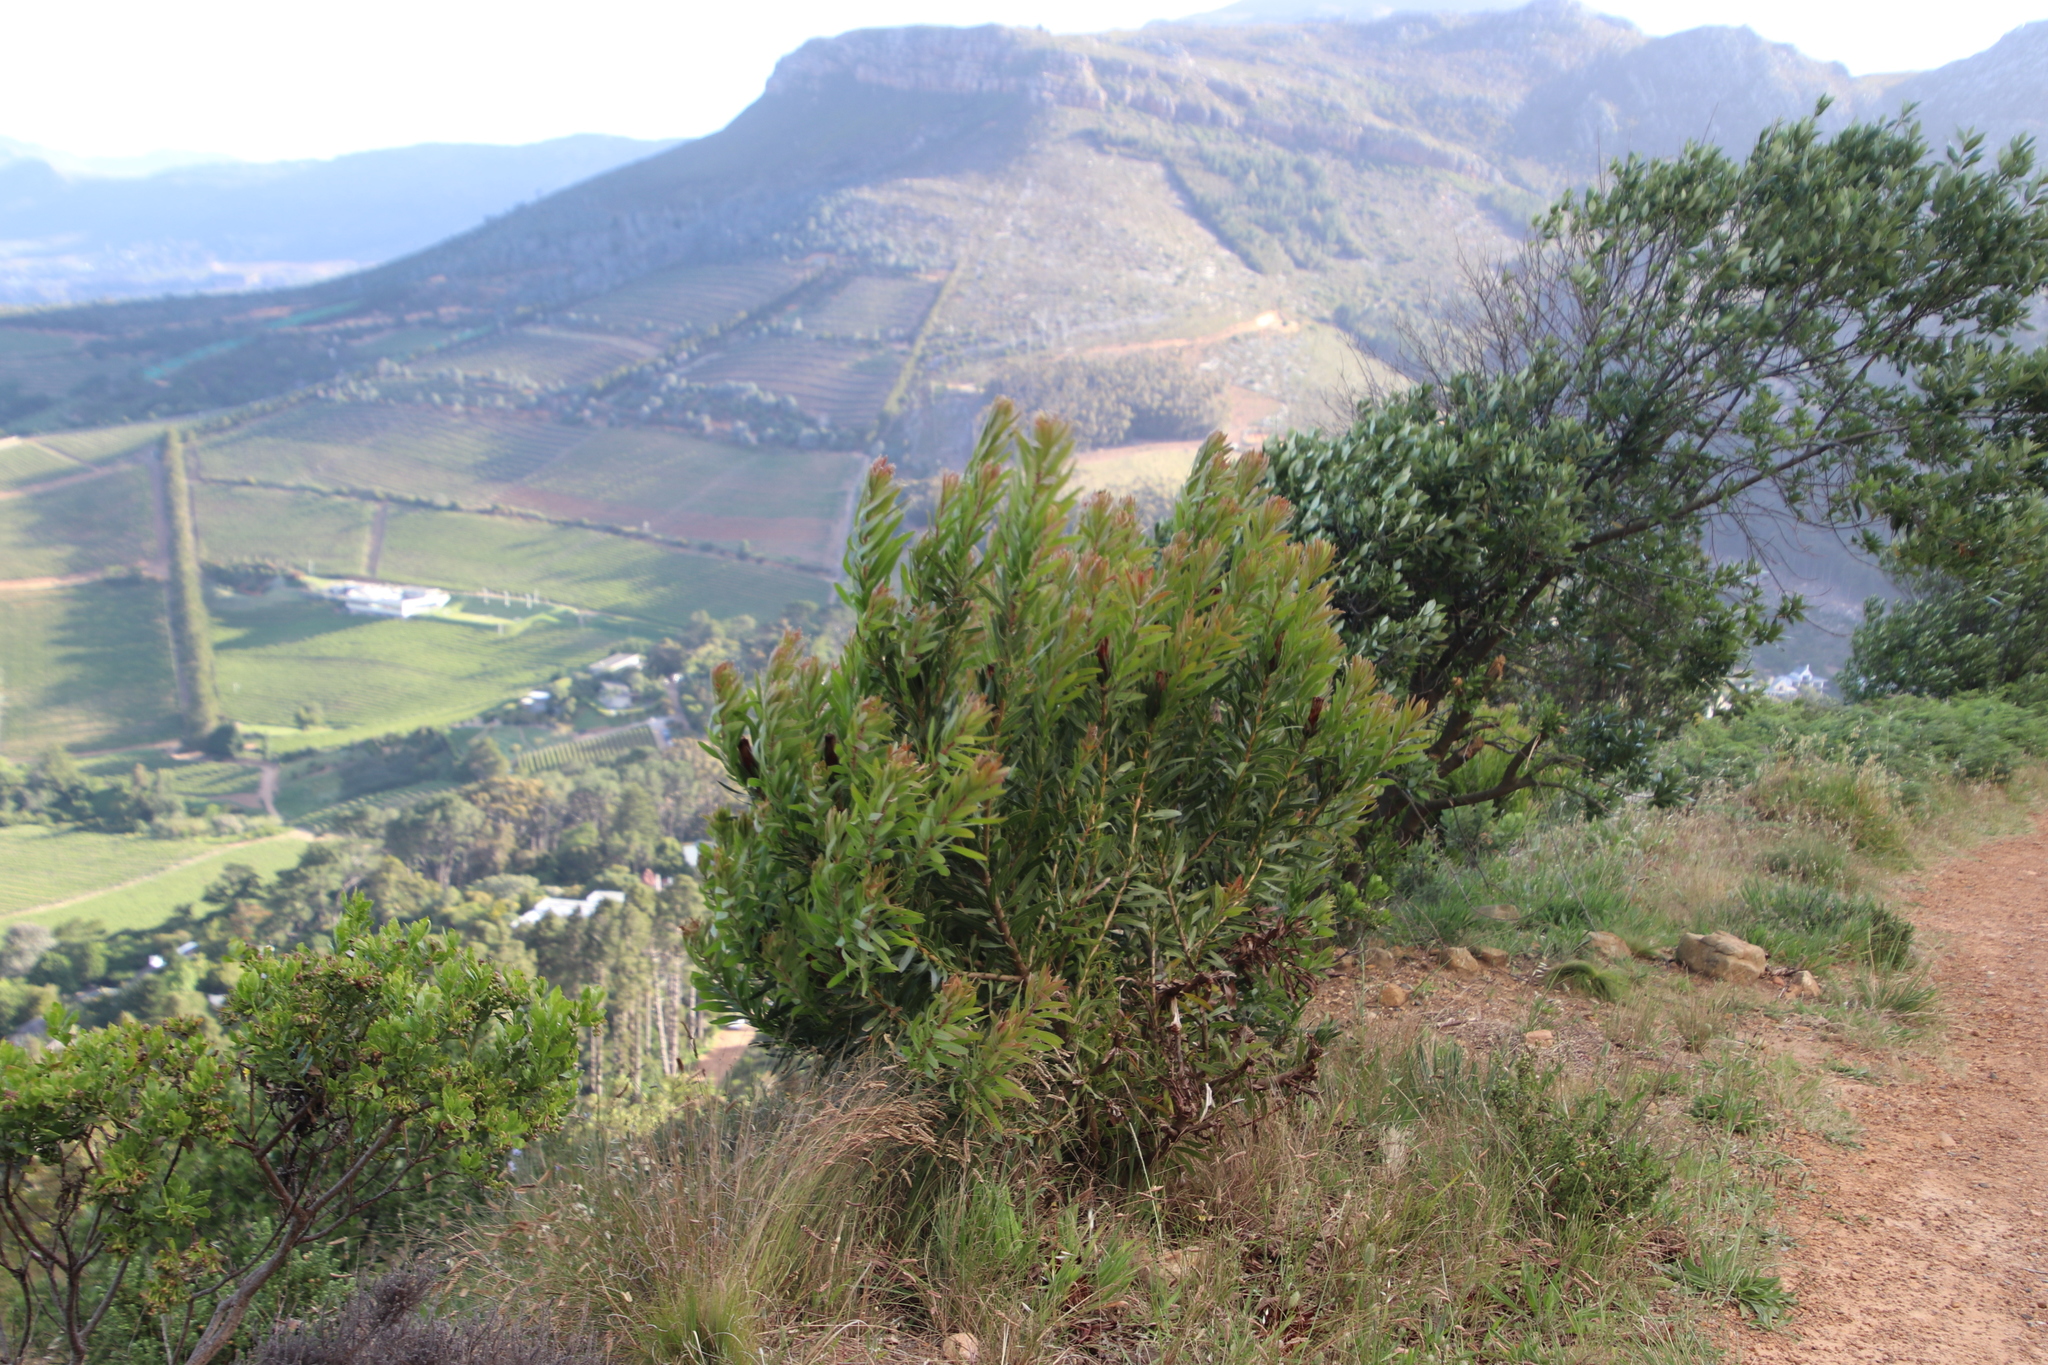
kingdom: Plantae
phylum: Tracheophyta
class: Magnoliopsida
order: Proteales
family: Proteaceae
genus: Protea
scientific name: Protea lepidocarpodendron
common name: Black-bearded protea
